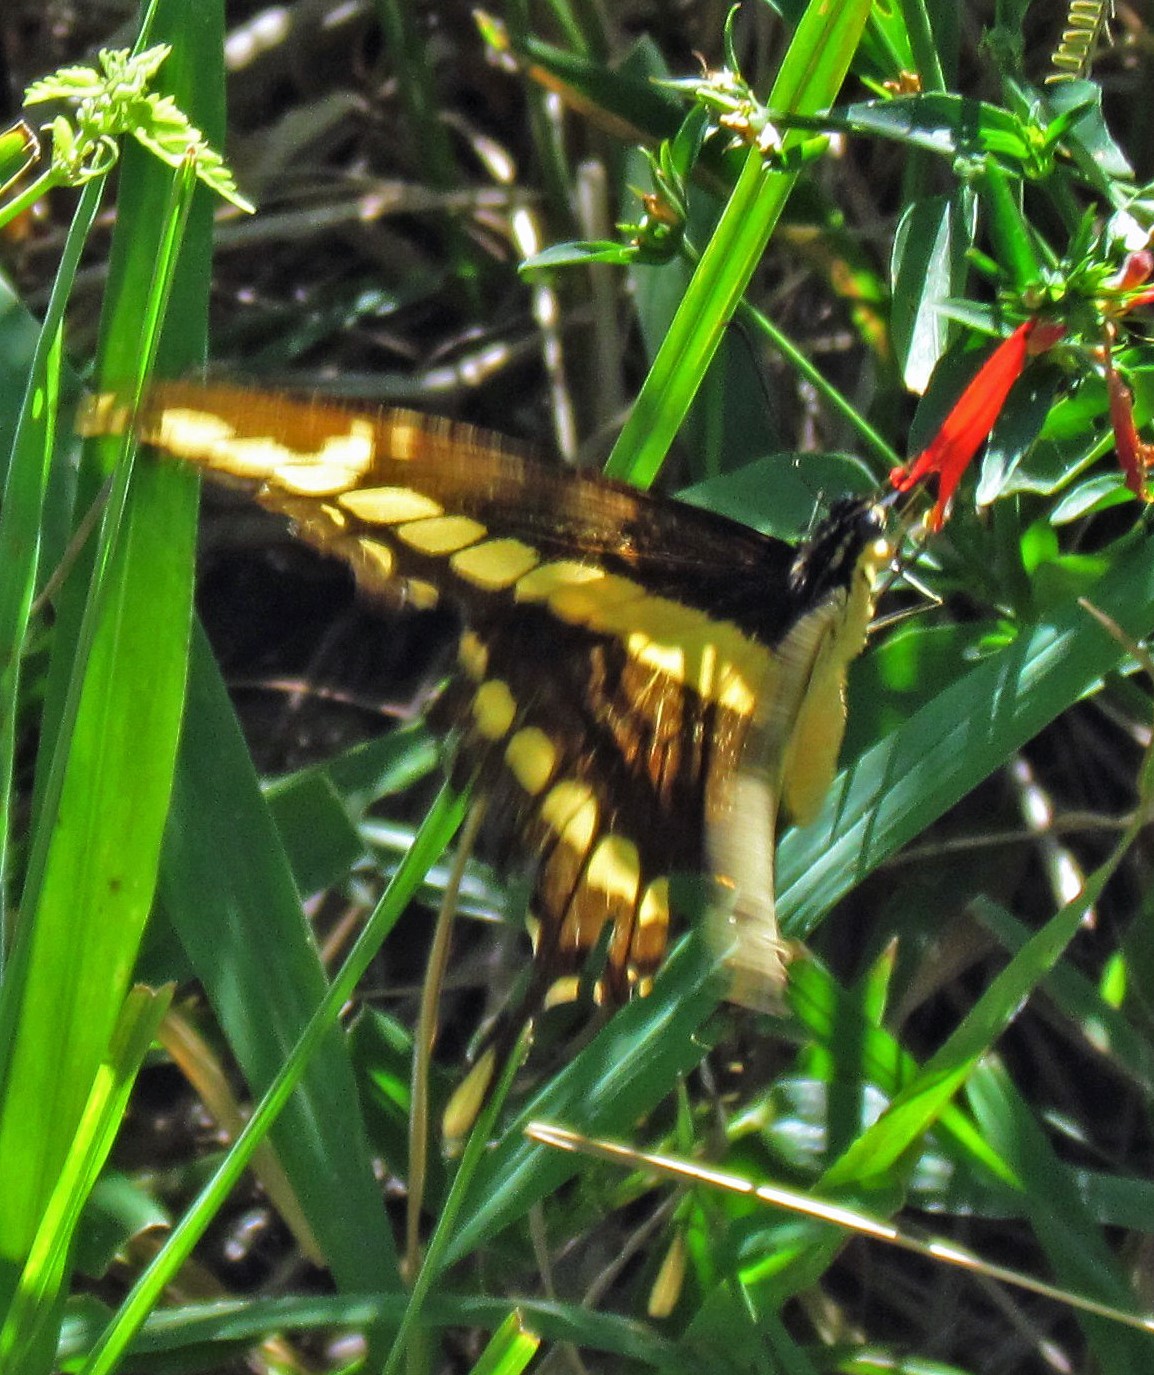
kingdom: Animalia
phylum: Arthropoda
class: Insecta
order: Lepidoptera
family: Papilionidae
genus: Papilio
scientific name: Papilio thoas
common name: King swallowtail
